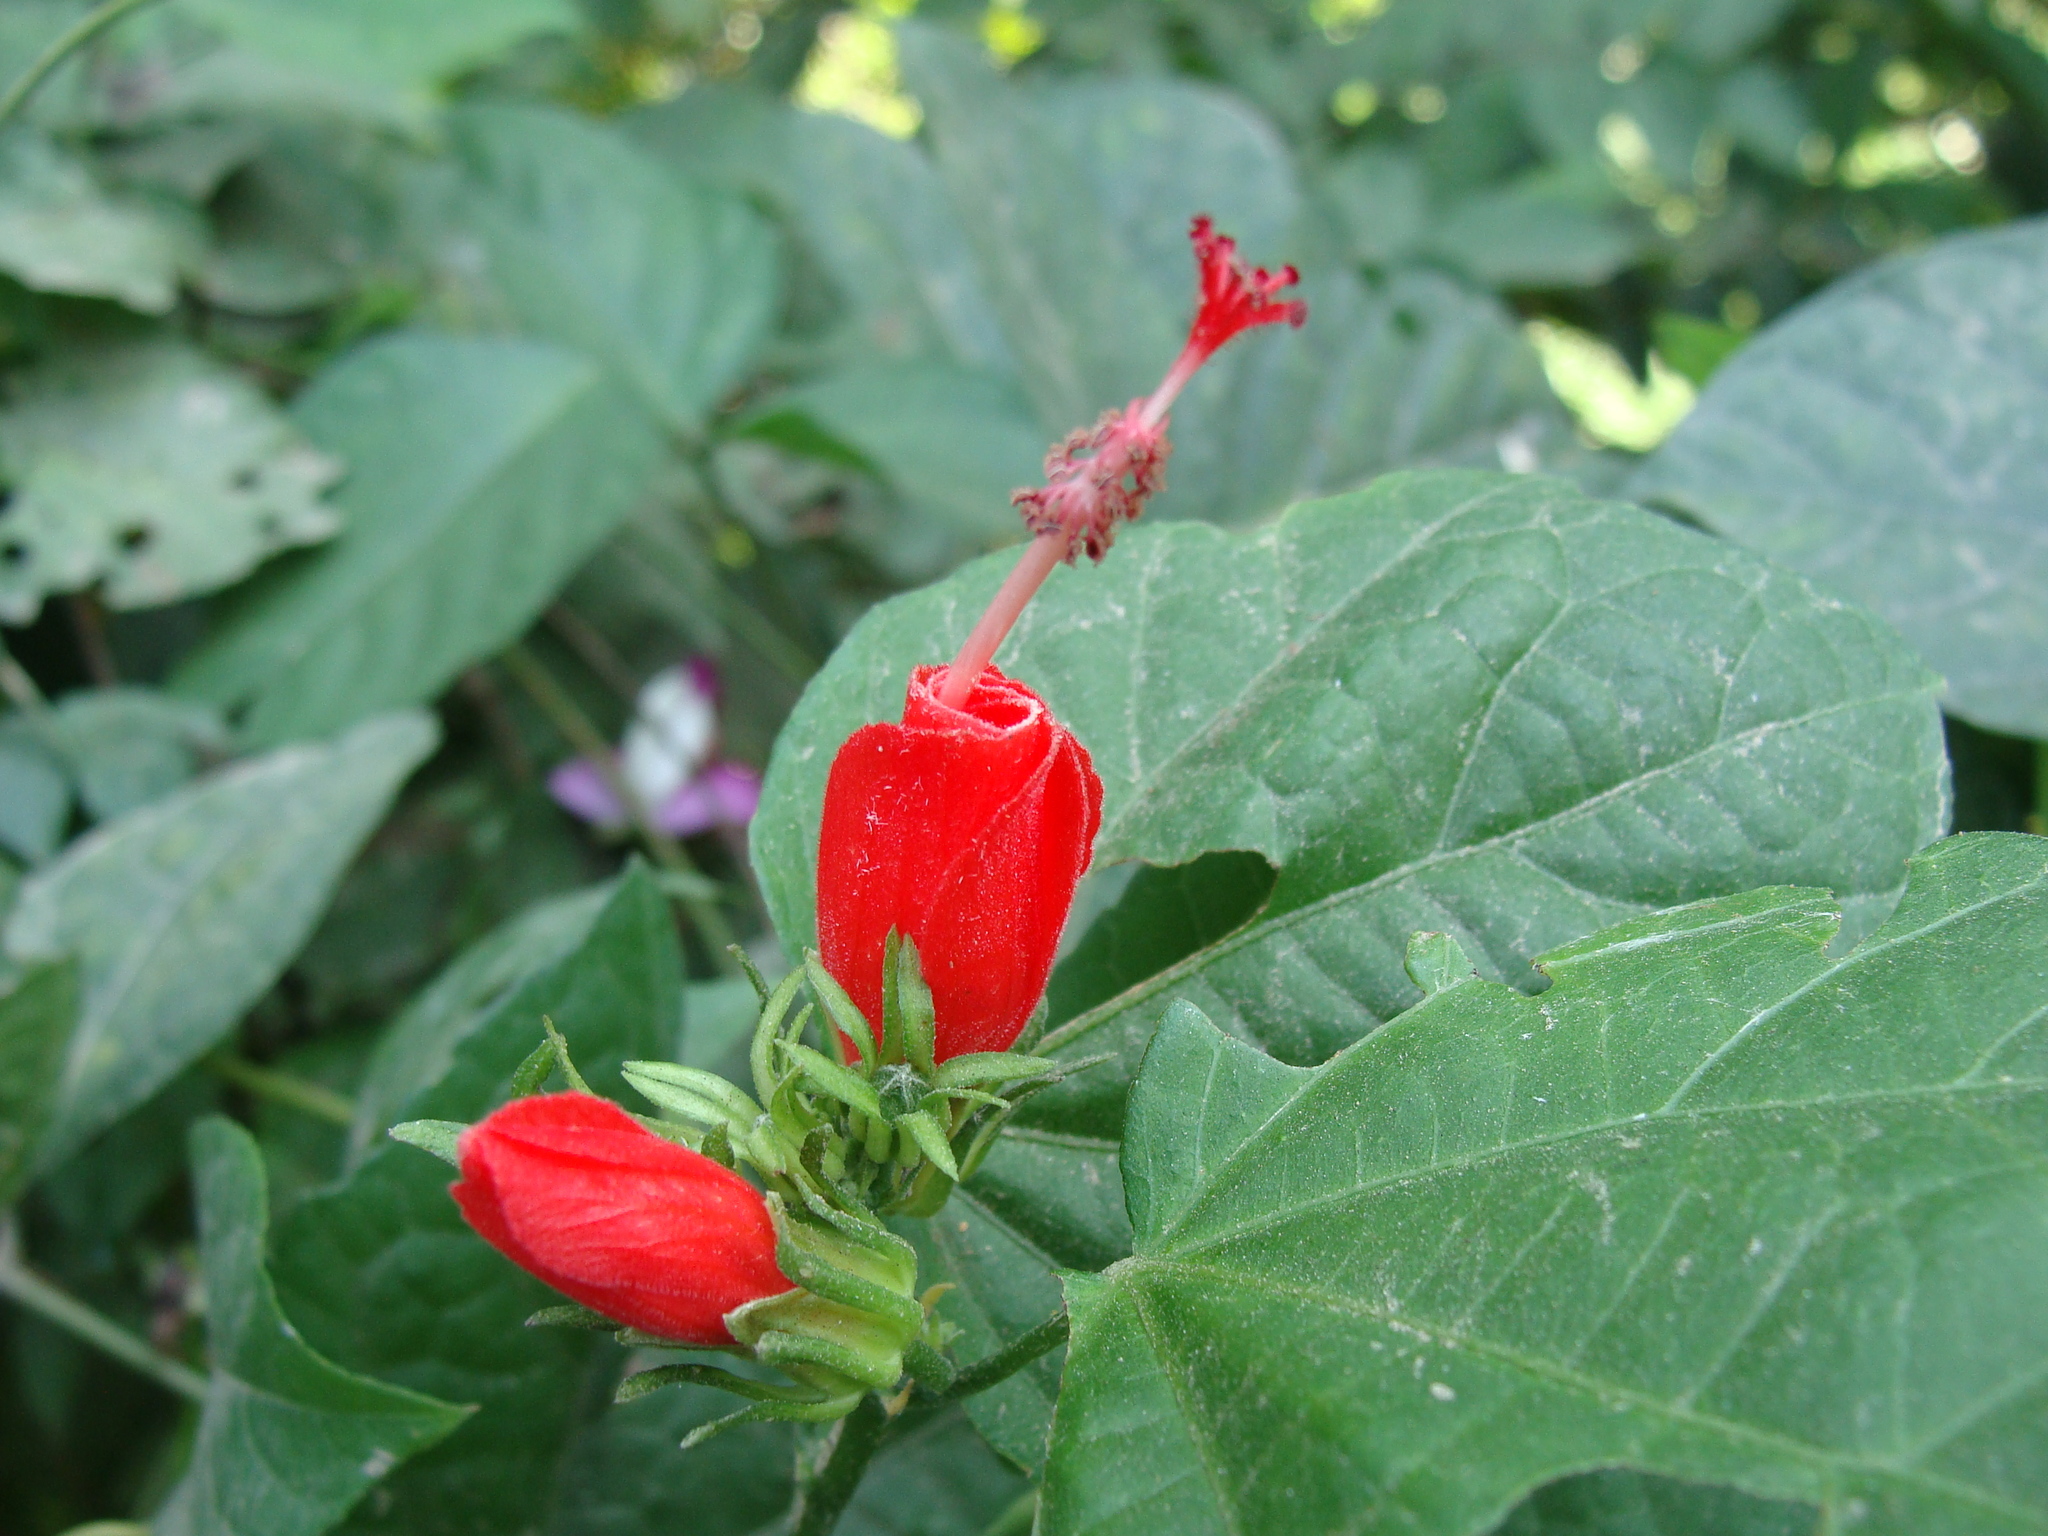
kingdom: Plantae
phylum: Tracheophyta
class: Magnoliopsida
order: Malvales
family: Malvaceae
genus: Malvaviscus
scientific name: Malvaviscus arboreus
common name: Wax mallow
